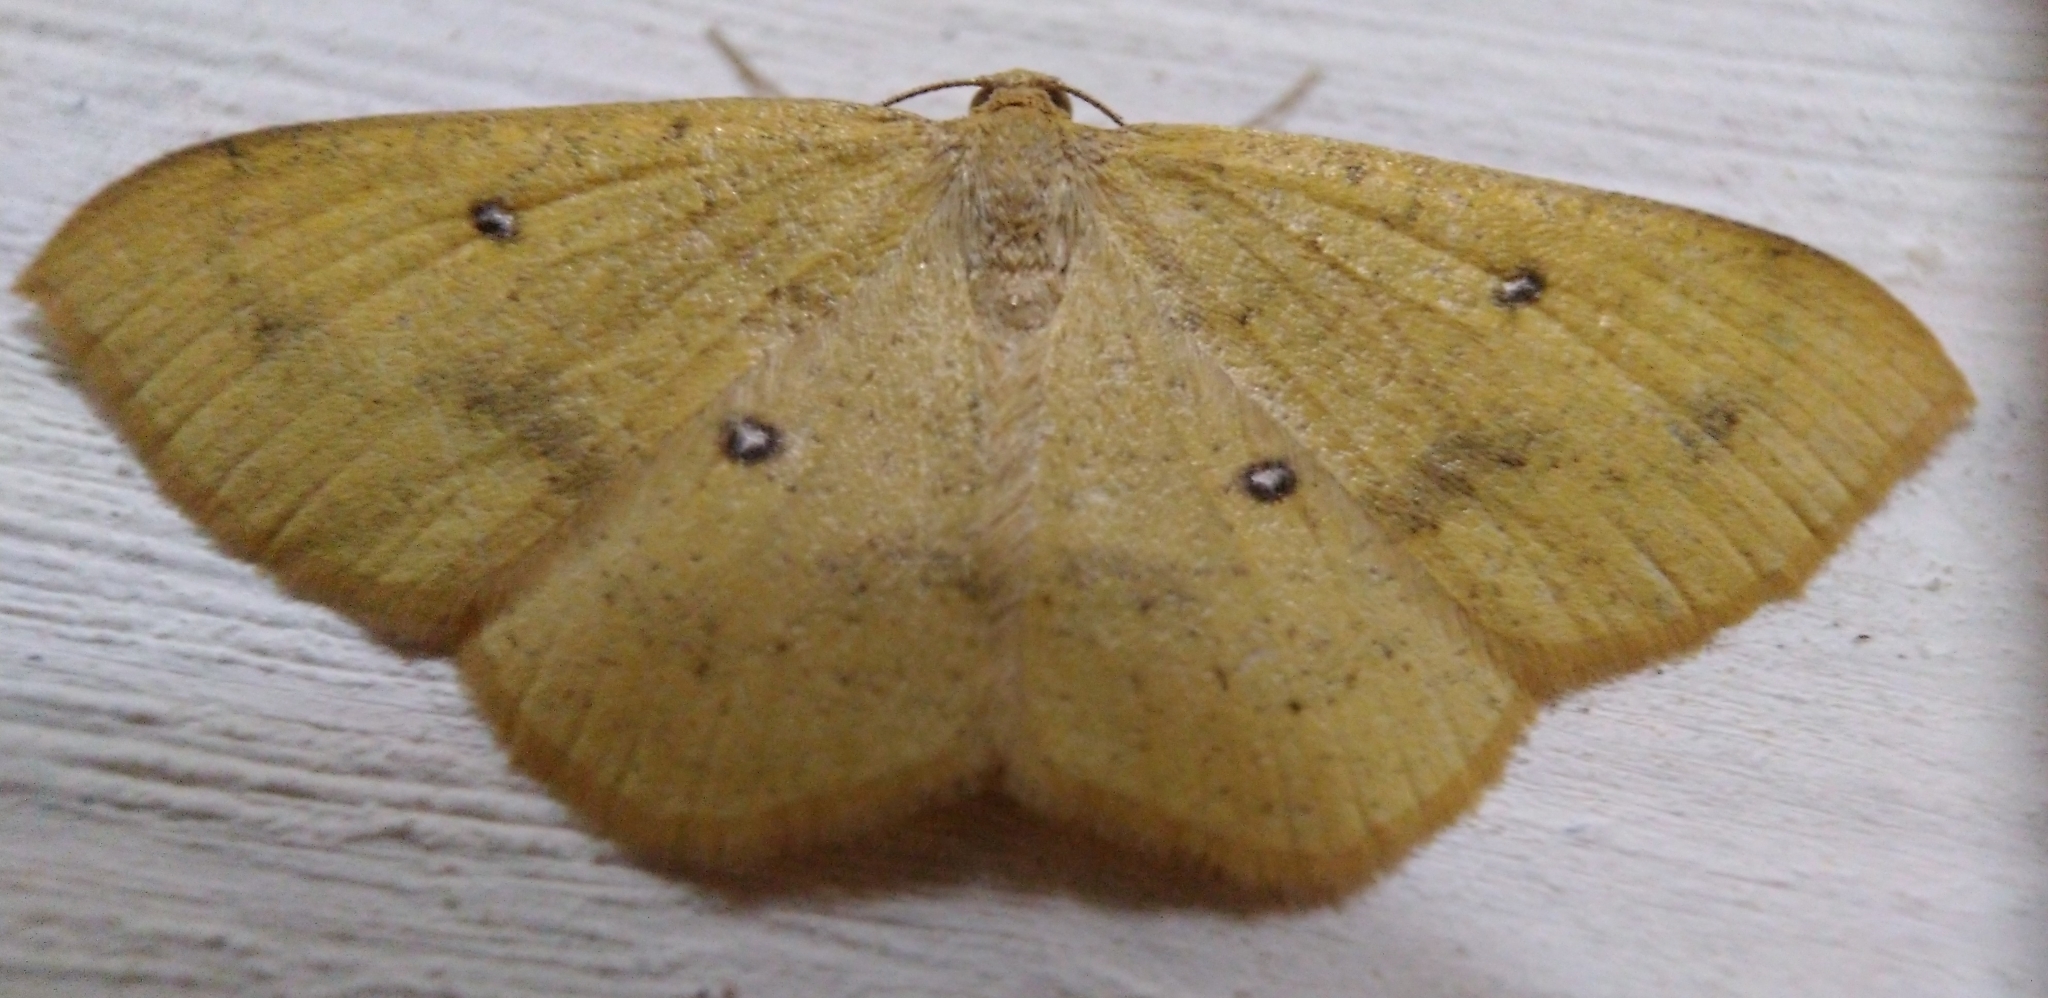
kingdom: Animalia
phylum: Arthropoda
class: Insecta
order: Lepidoptera
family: Geometridae
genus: Palaeaspilates
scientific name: Palaeaspilates Anisephyra ocularia
